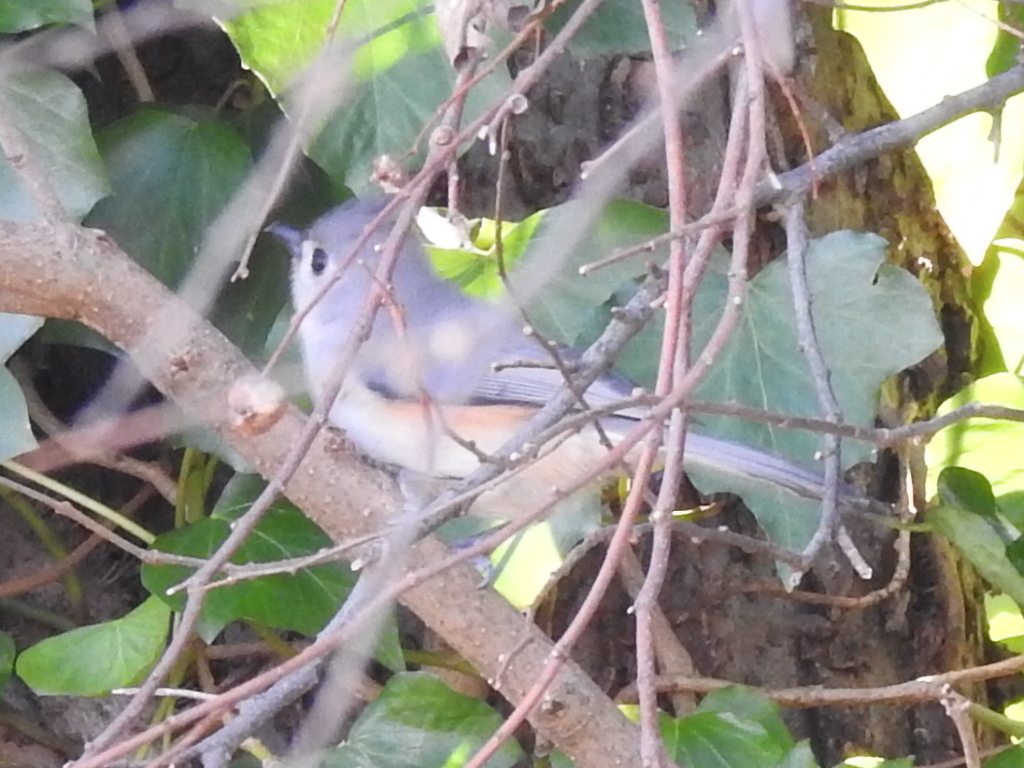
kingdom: Animalia
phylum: Chordata
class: Aves
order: Passeriformes
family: Paridae
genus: Baeolophus
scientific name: Baeolophus bicolor
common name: Tufted titmouse
